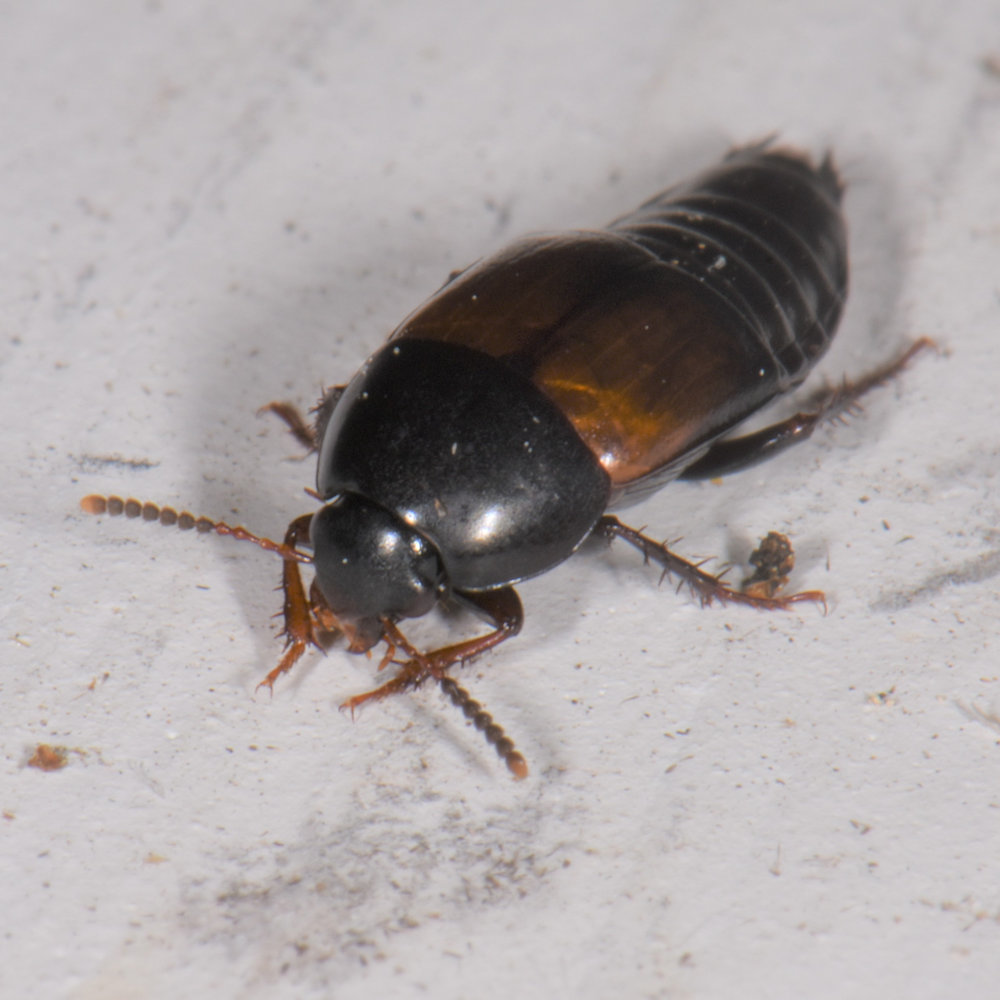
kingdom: Animalia
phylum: Arthropoda
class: Insecta
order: Coleoptera
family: Staphylinidae
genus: Tachinus
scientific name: Tachinus fimbriatus
